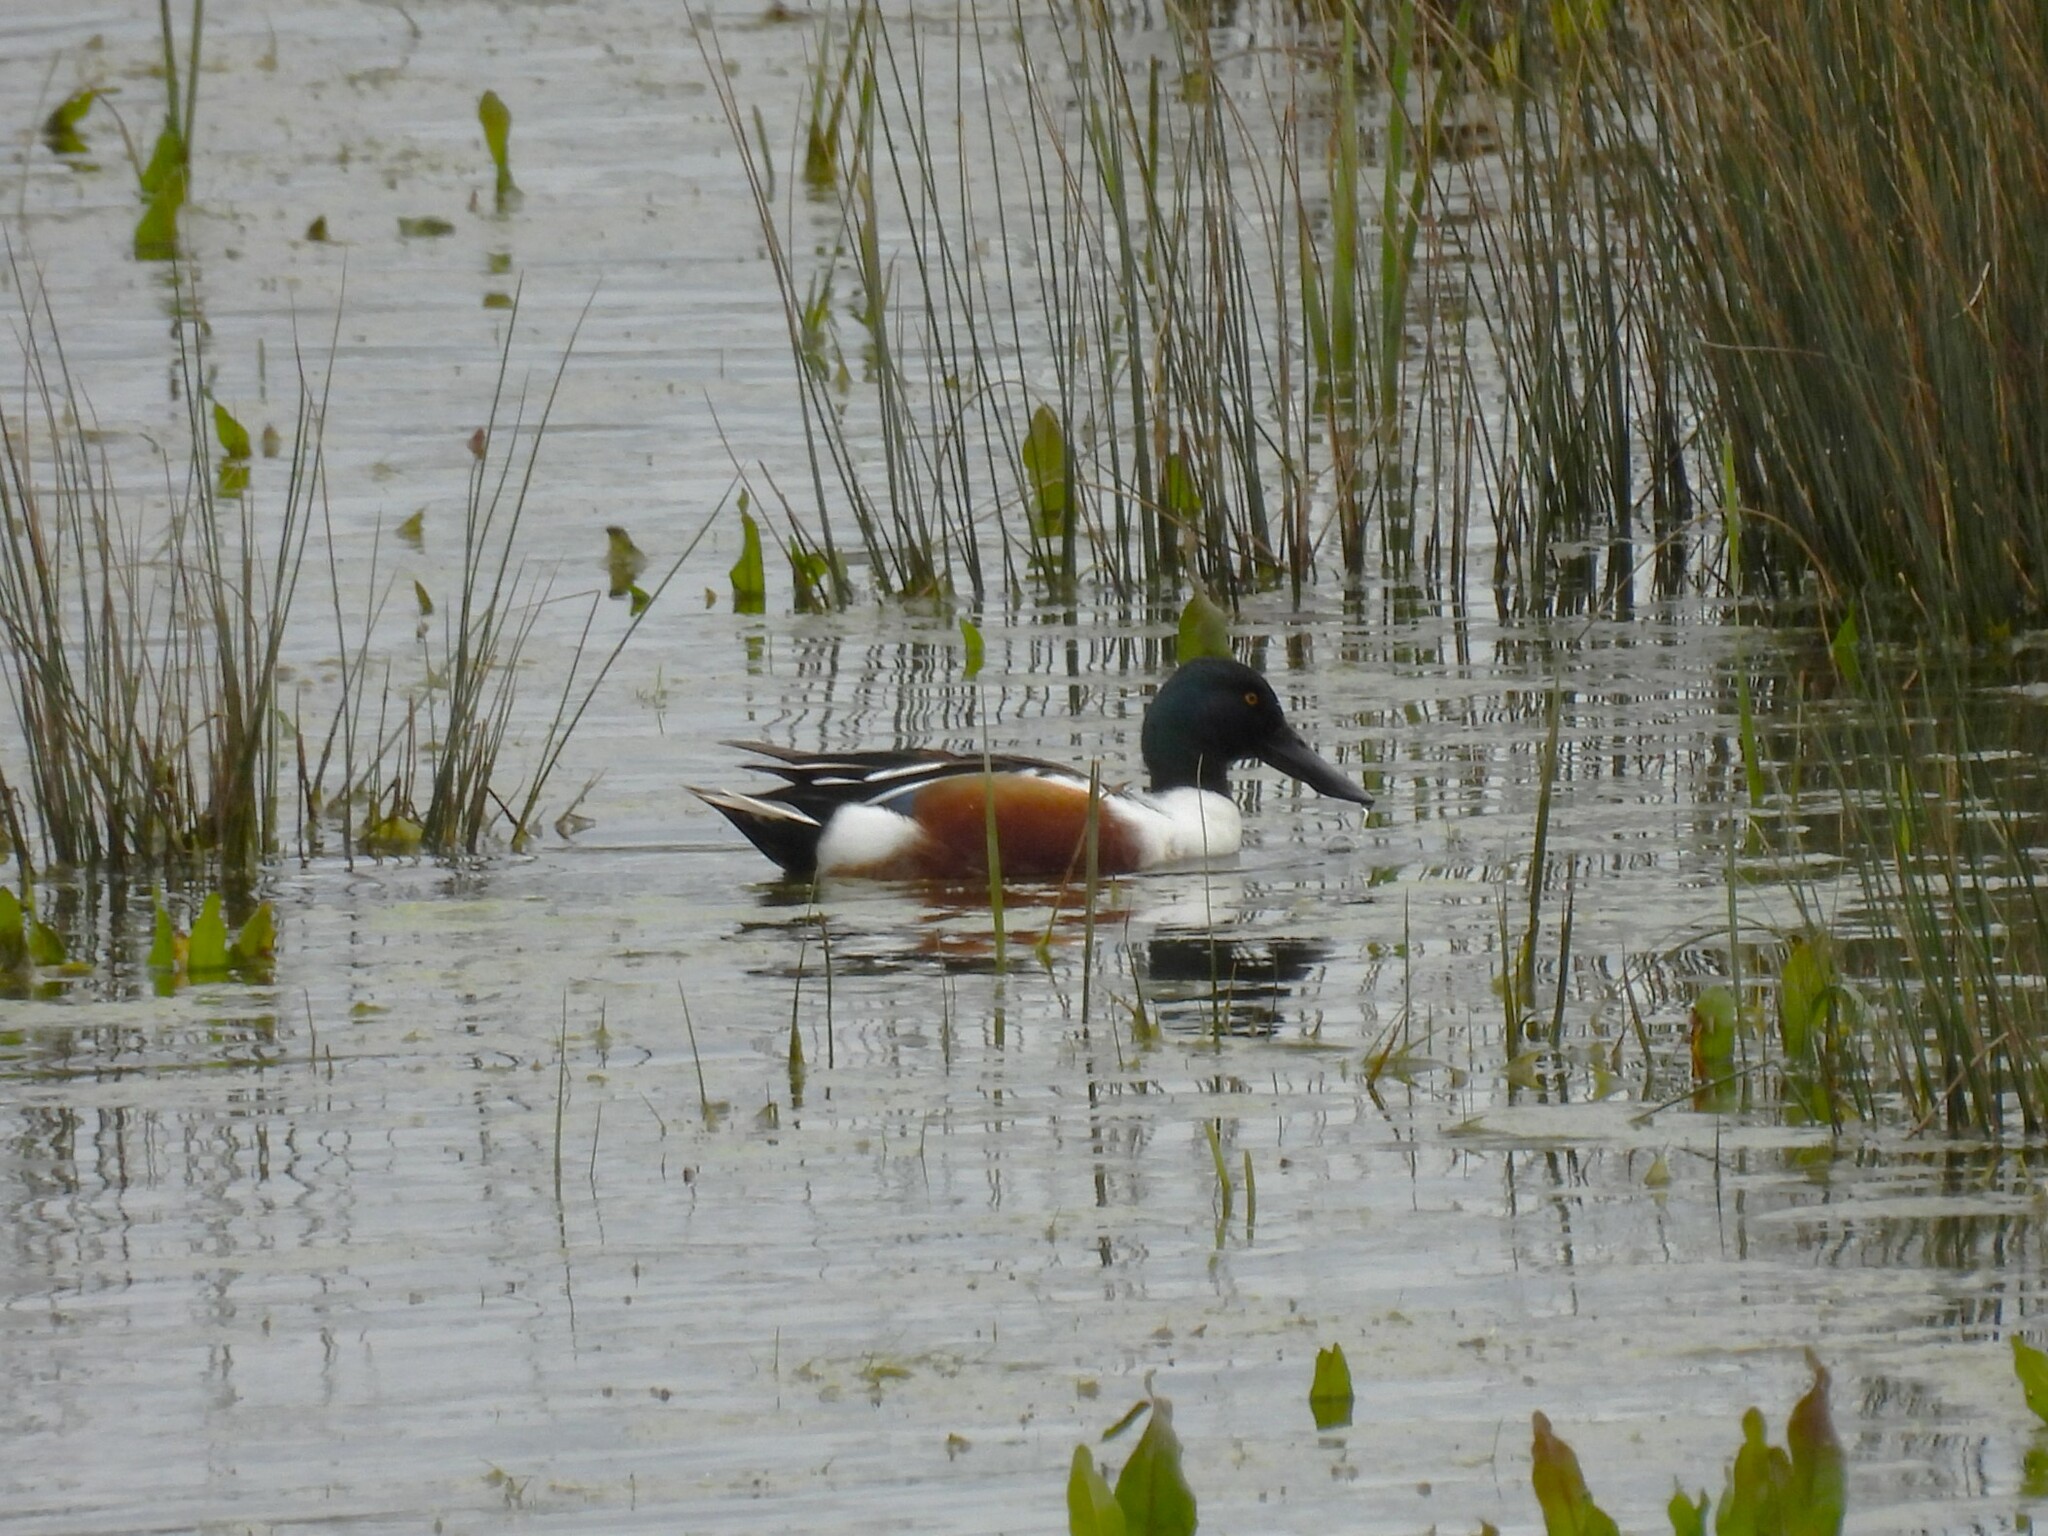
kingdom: Animalia
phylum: Chordata
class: Aves
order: Anseriformes
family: Anatidae
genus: Spatula
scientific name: Spatula clypeata
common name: Northern shoveler
